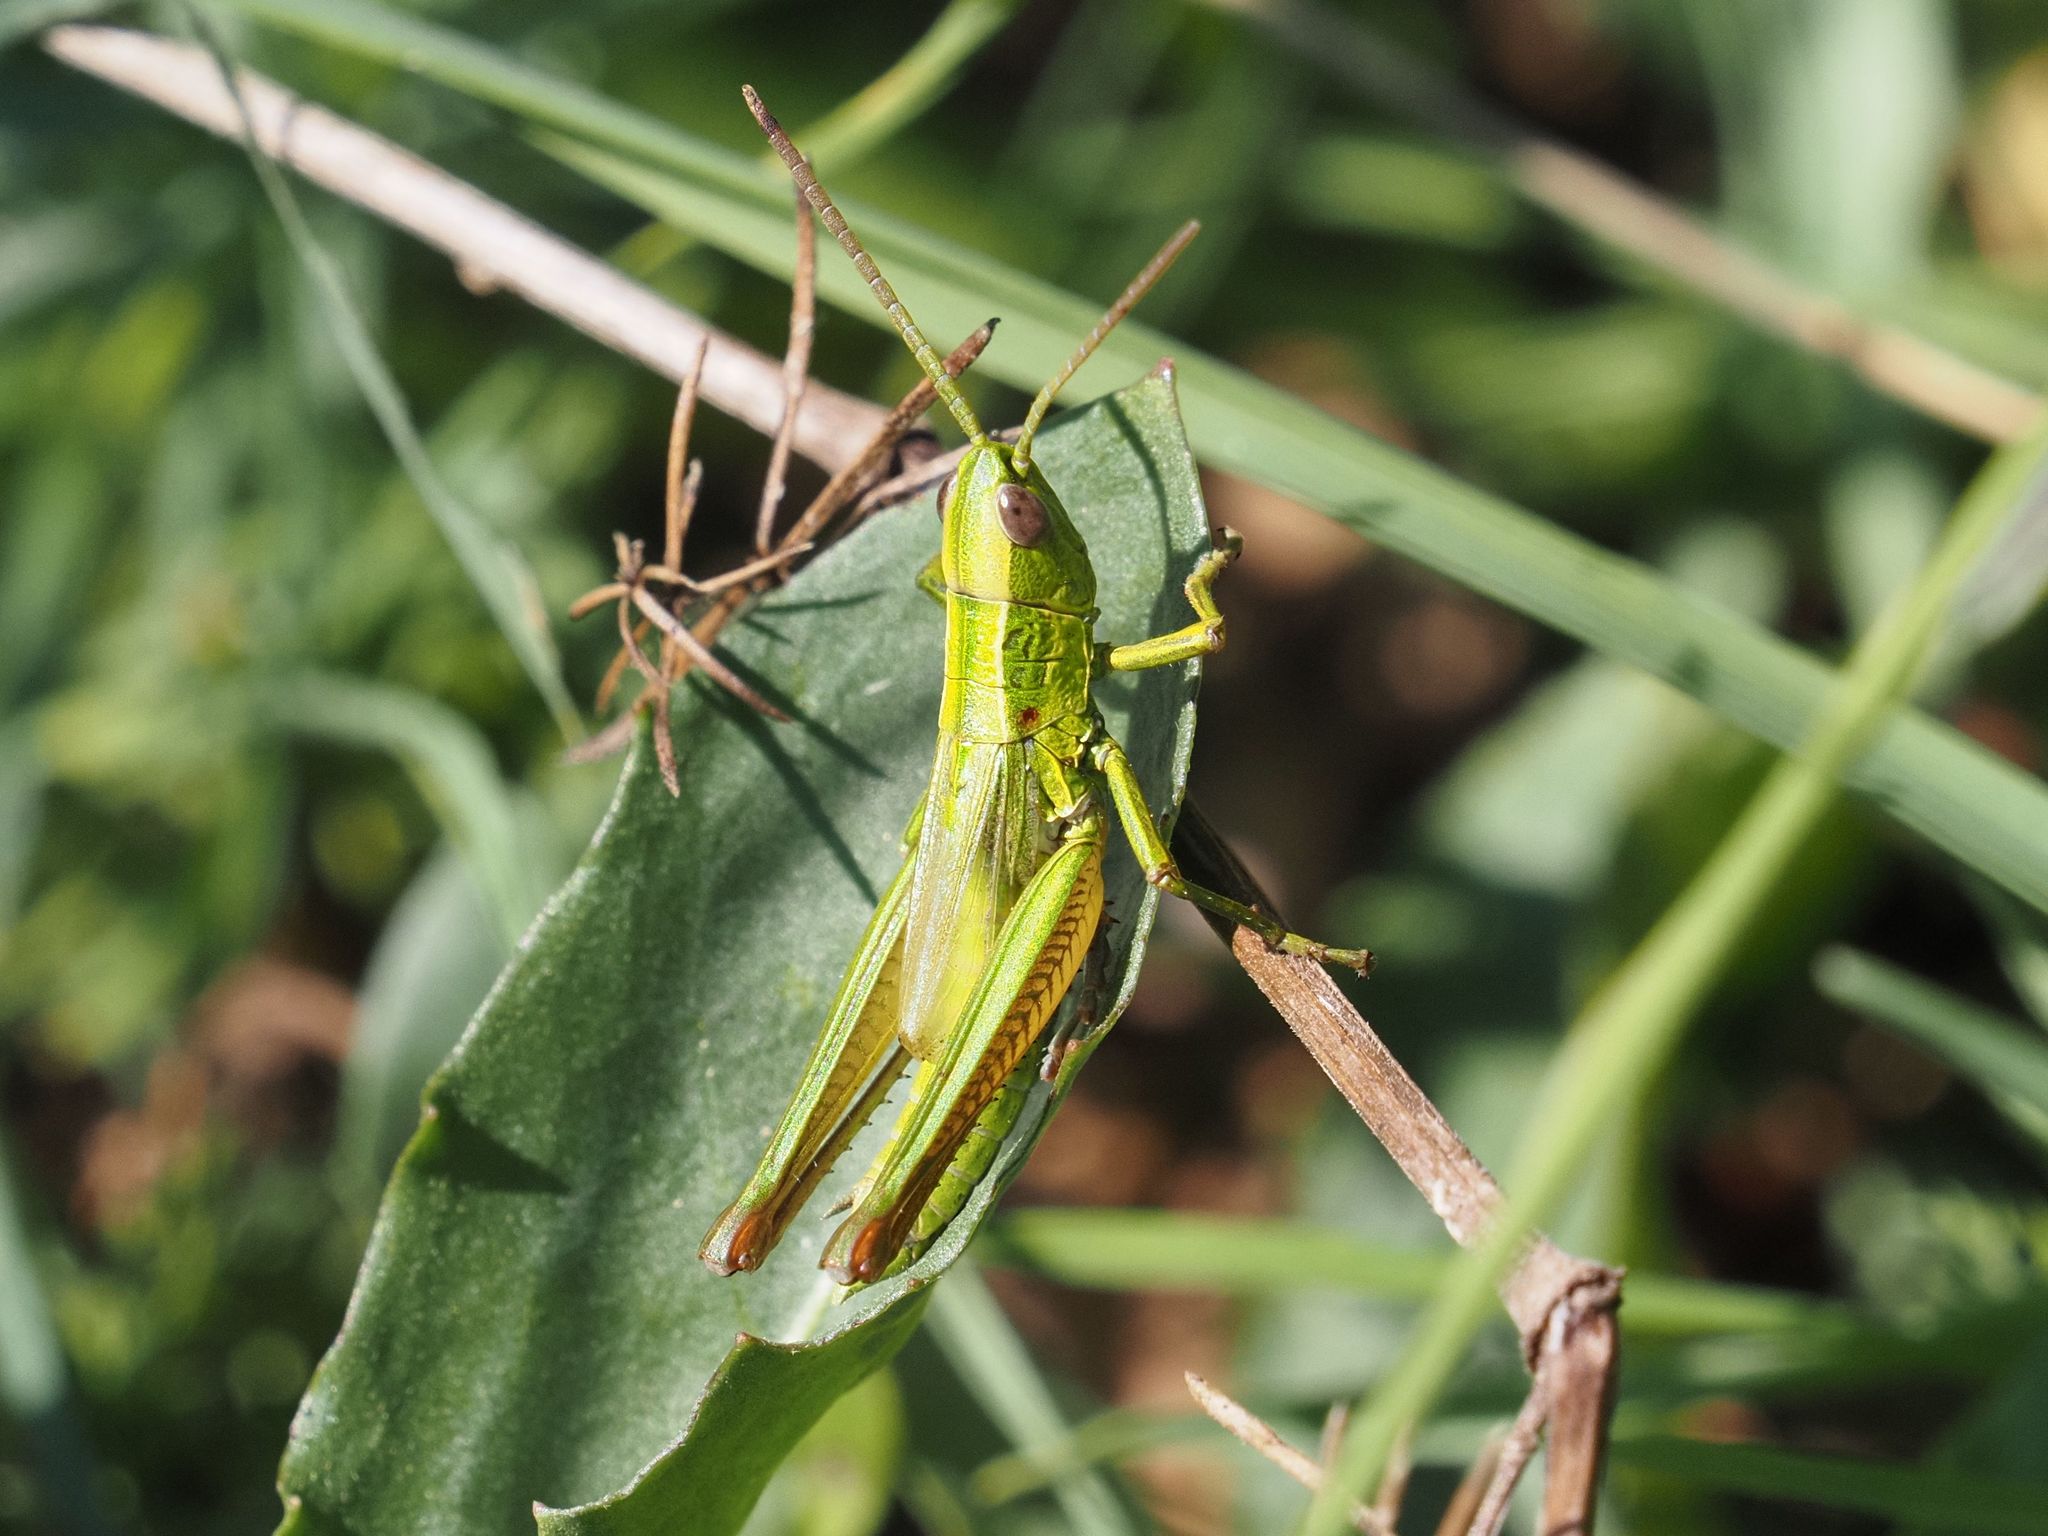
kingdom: Animalia
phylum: Arthropoda
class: Insecta
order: Orthoptera
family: Acrididae
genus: Euthystira
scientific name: Euthystira brachyptera
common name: Small gold grasshopper
